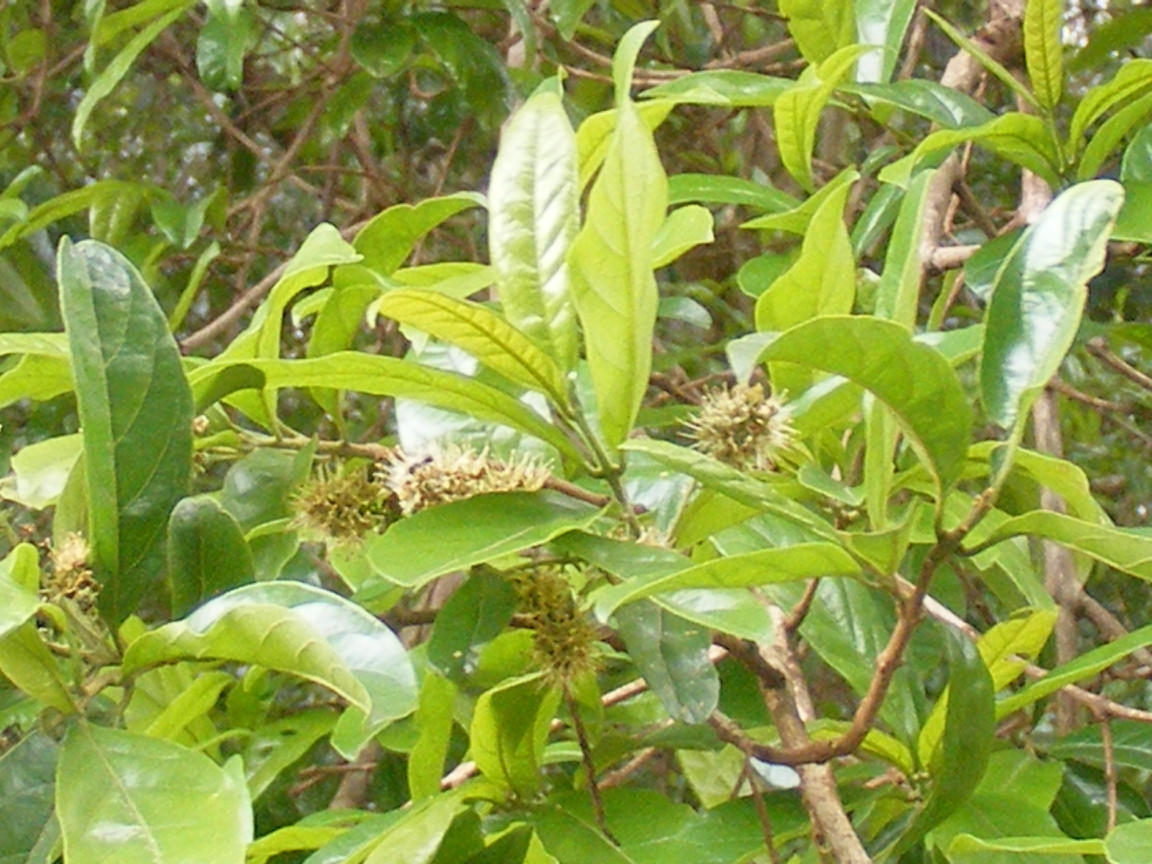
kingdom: Plantae
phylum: Tracheophyta
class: Magnoliopsida
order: Myrtales
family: Combretaceae
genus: Combretum
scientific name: Combretum erythrophyllum
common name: Bush-willow
